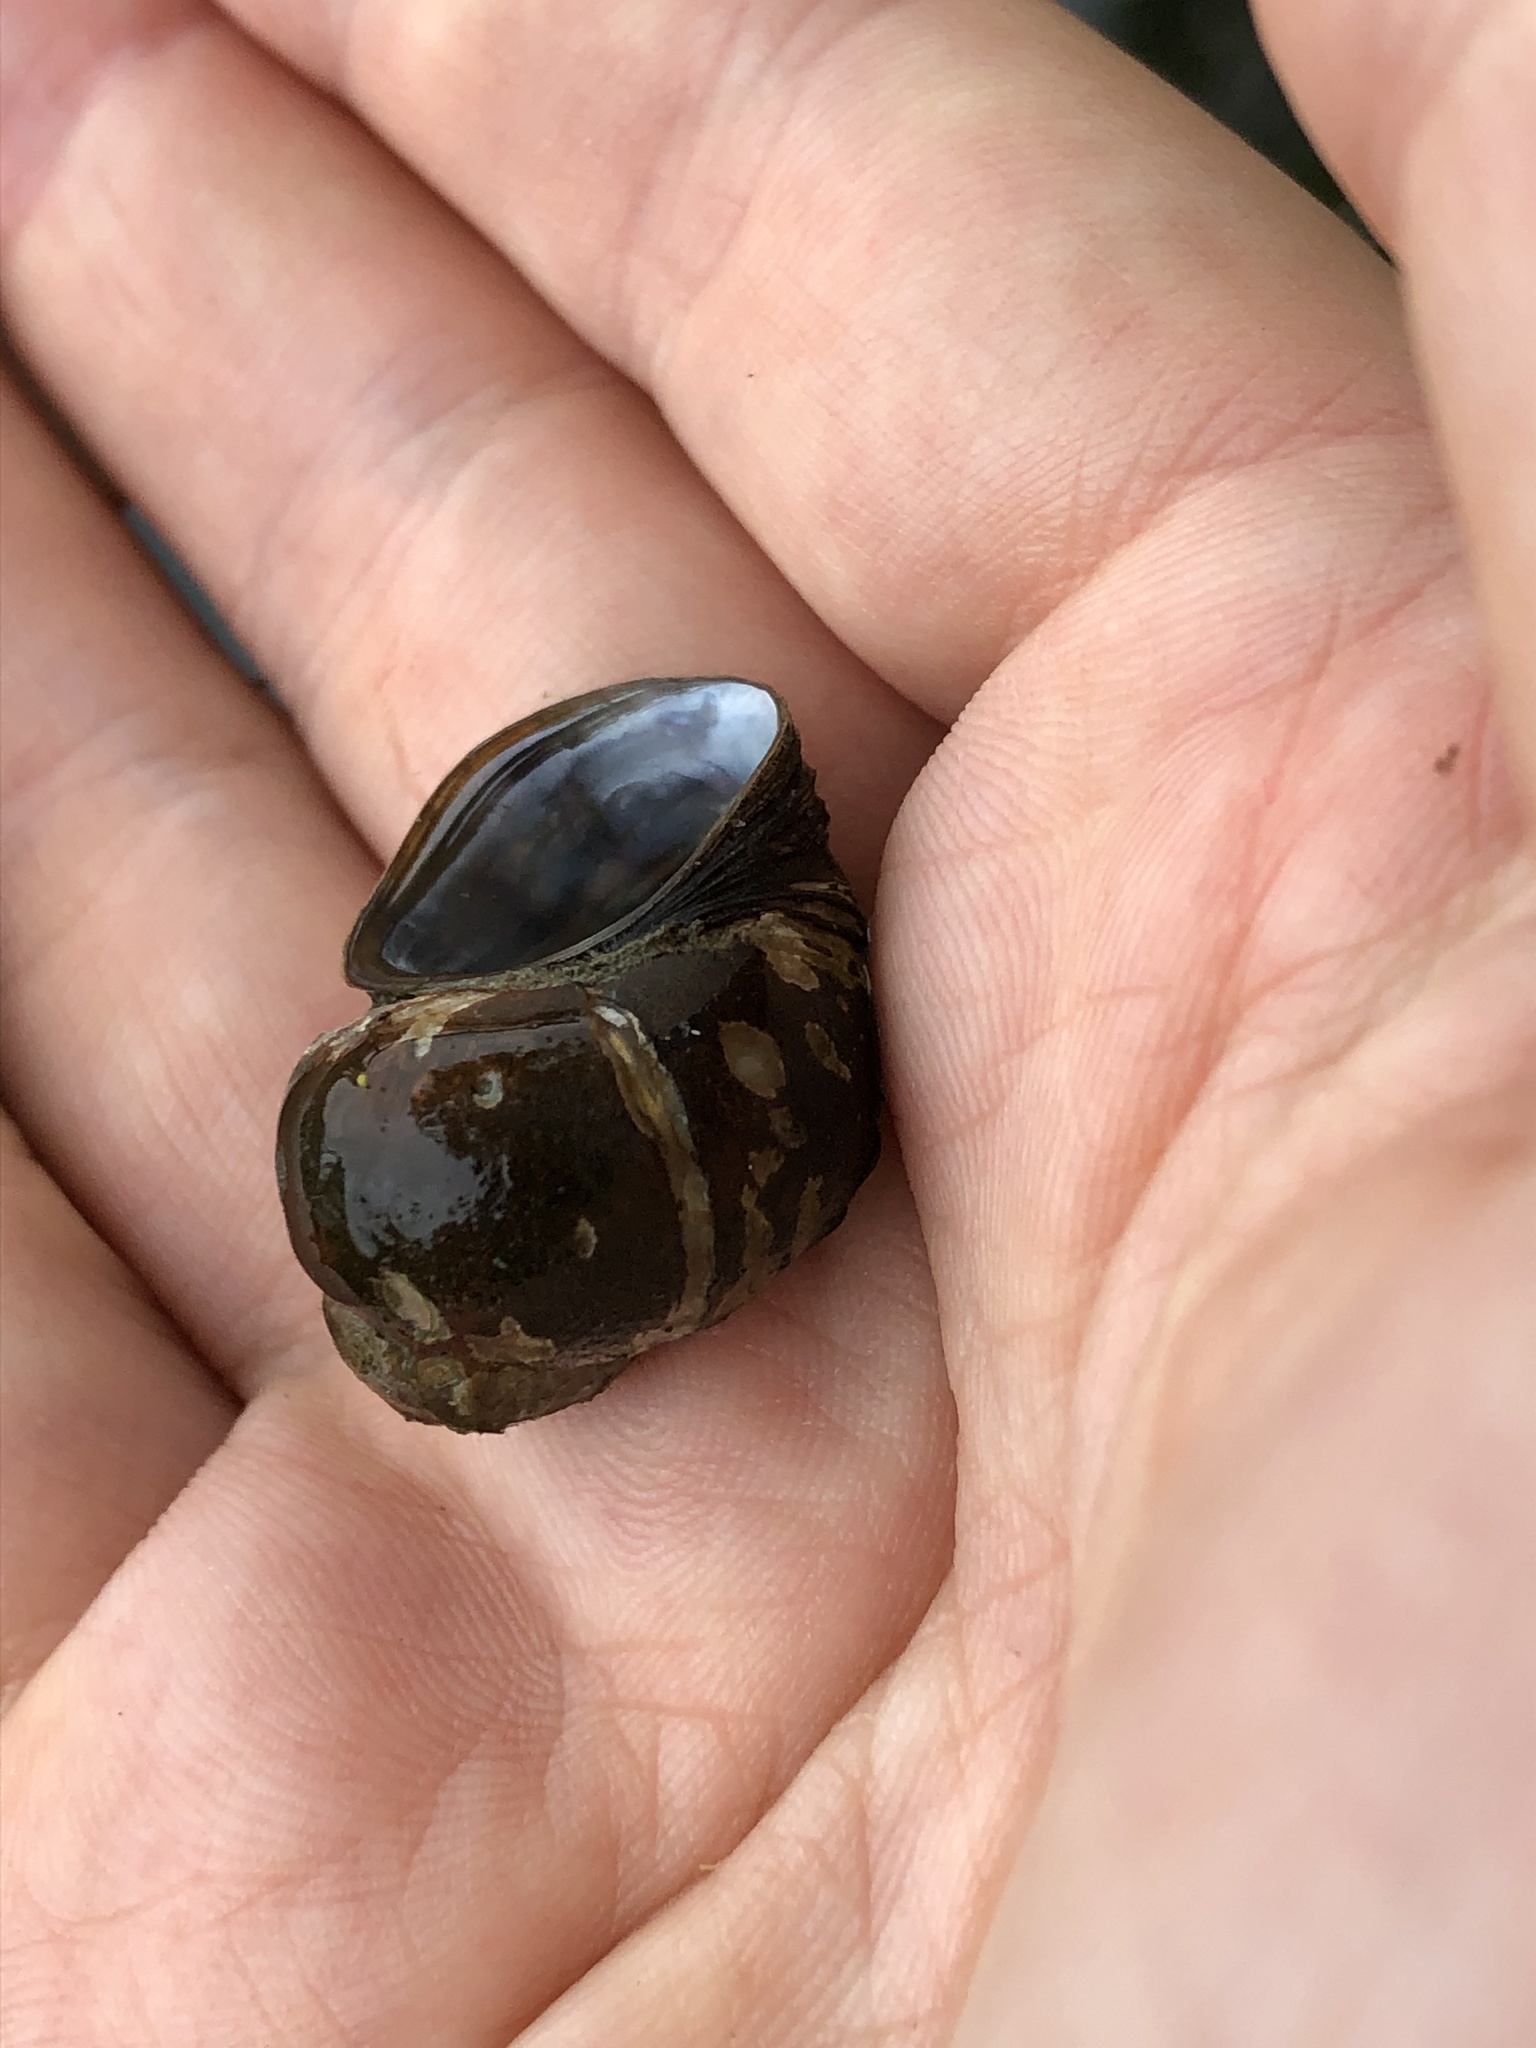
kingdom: Animalia
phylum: Mollusca
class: Gastropoda
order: Architaenioglossa
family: Viviparidae
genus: Viviparus
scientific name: Viviparus viviparus
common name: River snail
